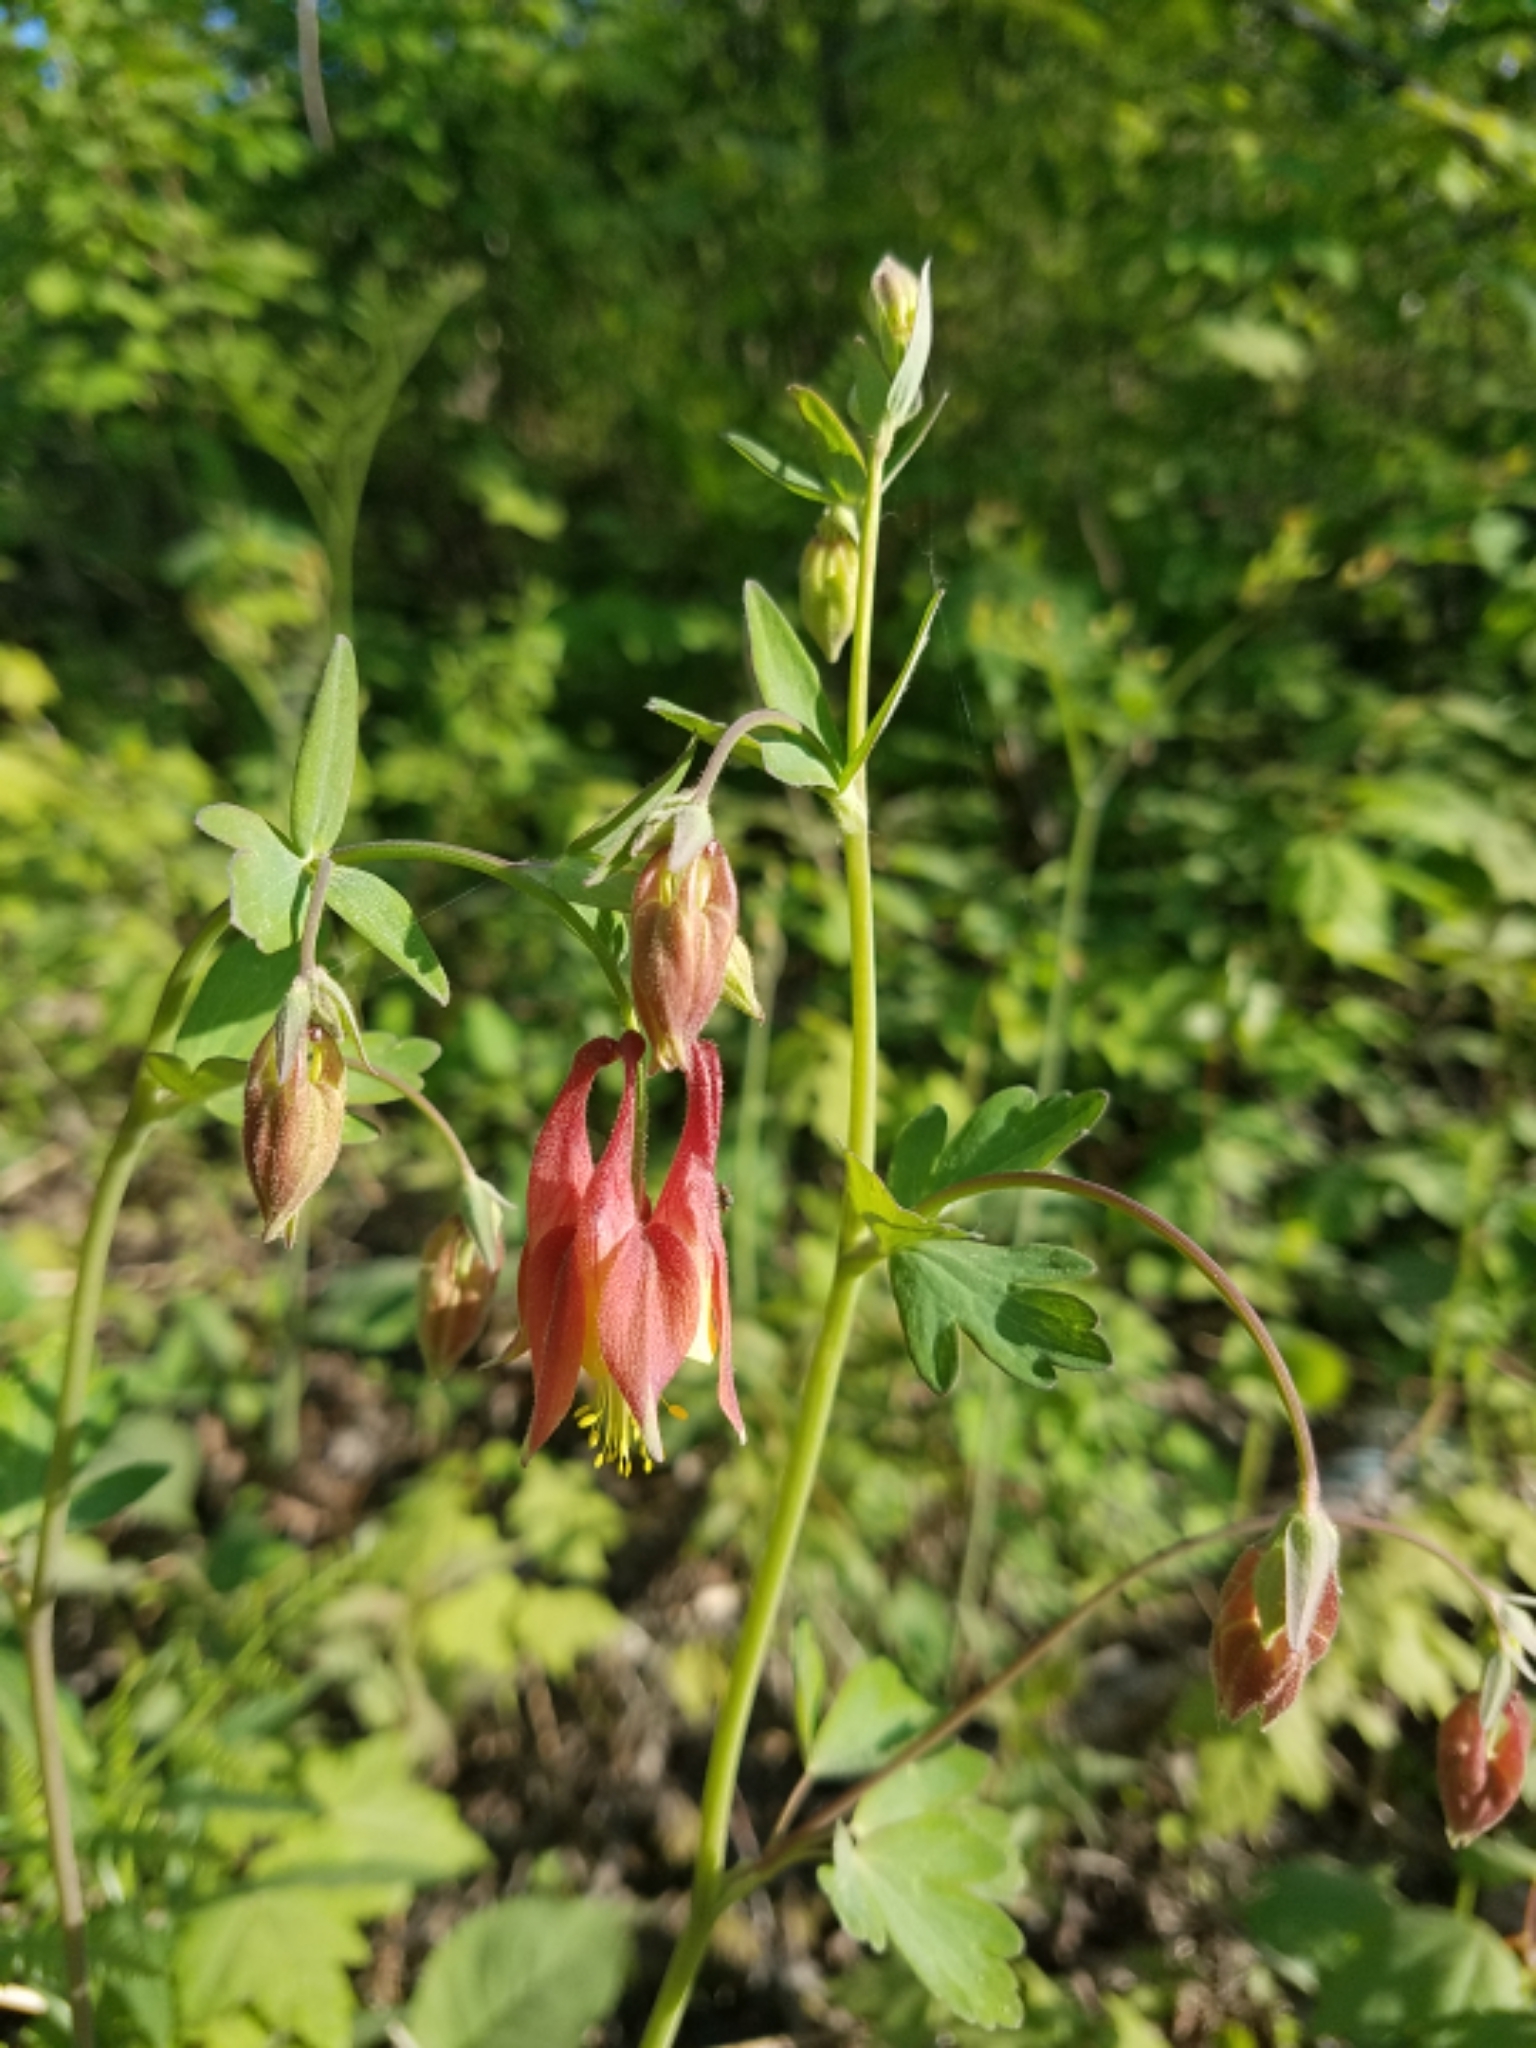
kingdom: Plantae
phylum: Tracheophyta
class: Magnoliopsida
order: Ranunculales
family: Ranunculaceae
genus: Aquilegia
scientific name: Aquilegia canadensis
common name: American columbine
